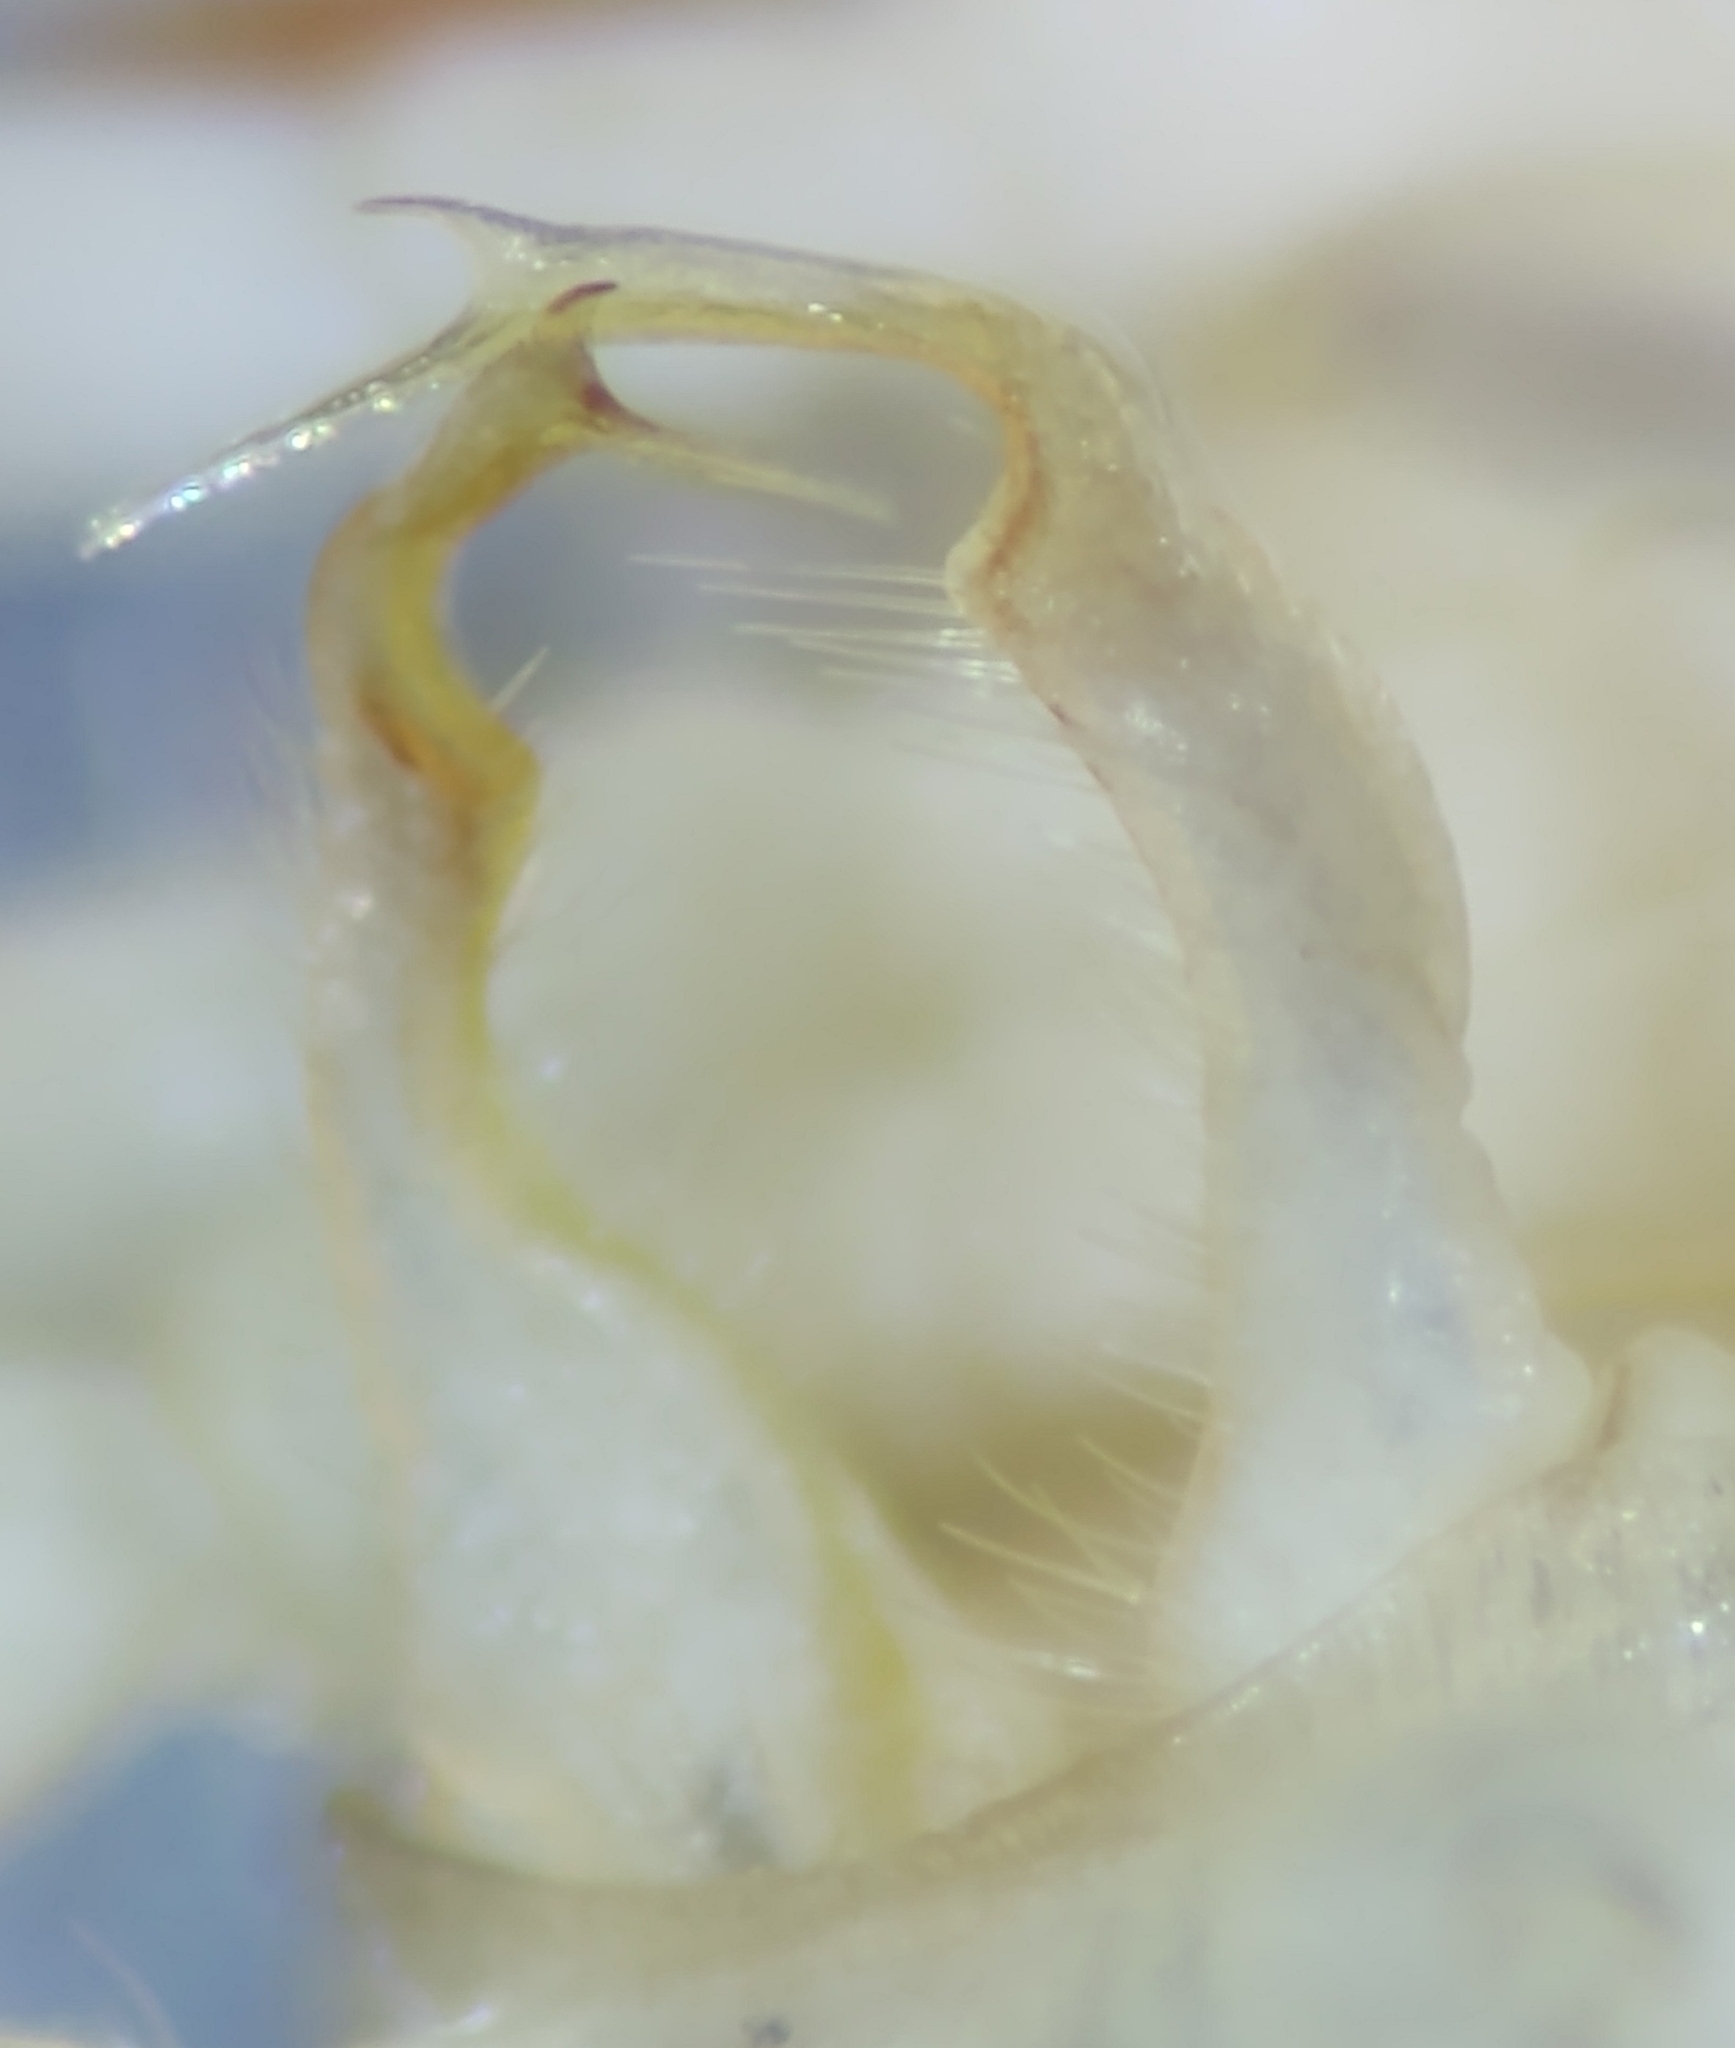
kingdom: Animalia
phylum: Arthropoda
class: Diplopoda
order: Polydesmida
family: Xystodesmidae
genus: Euryurus
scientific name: Euryurus maculatus
